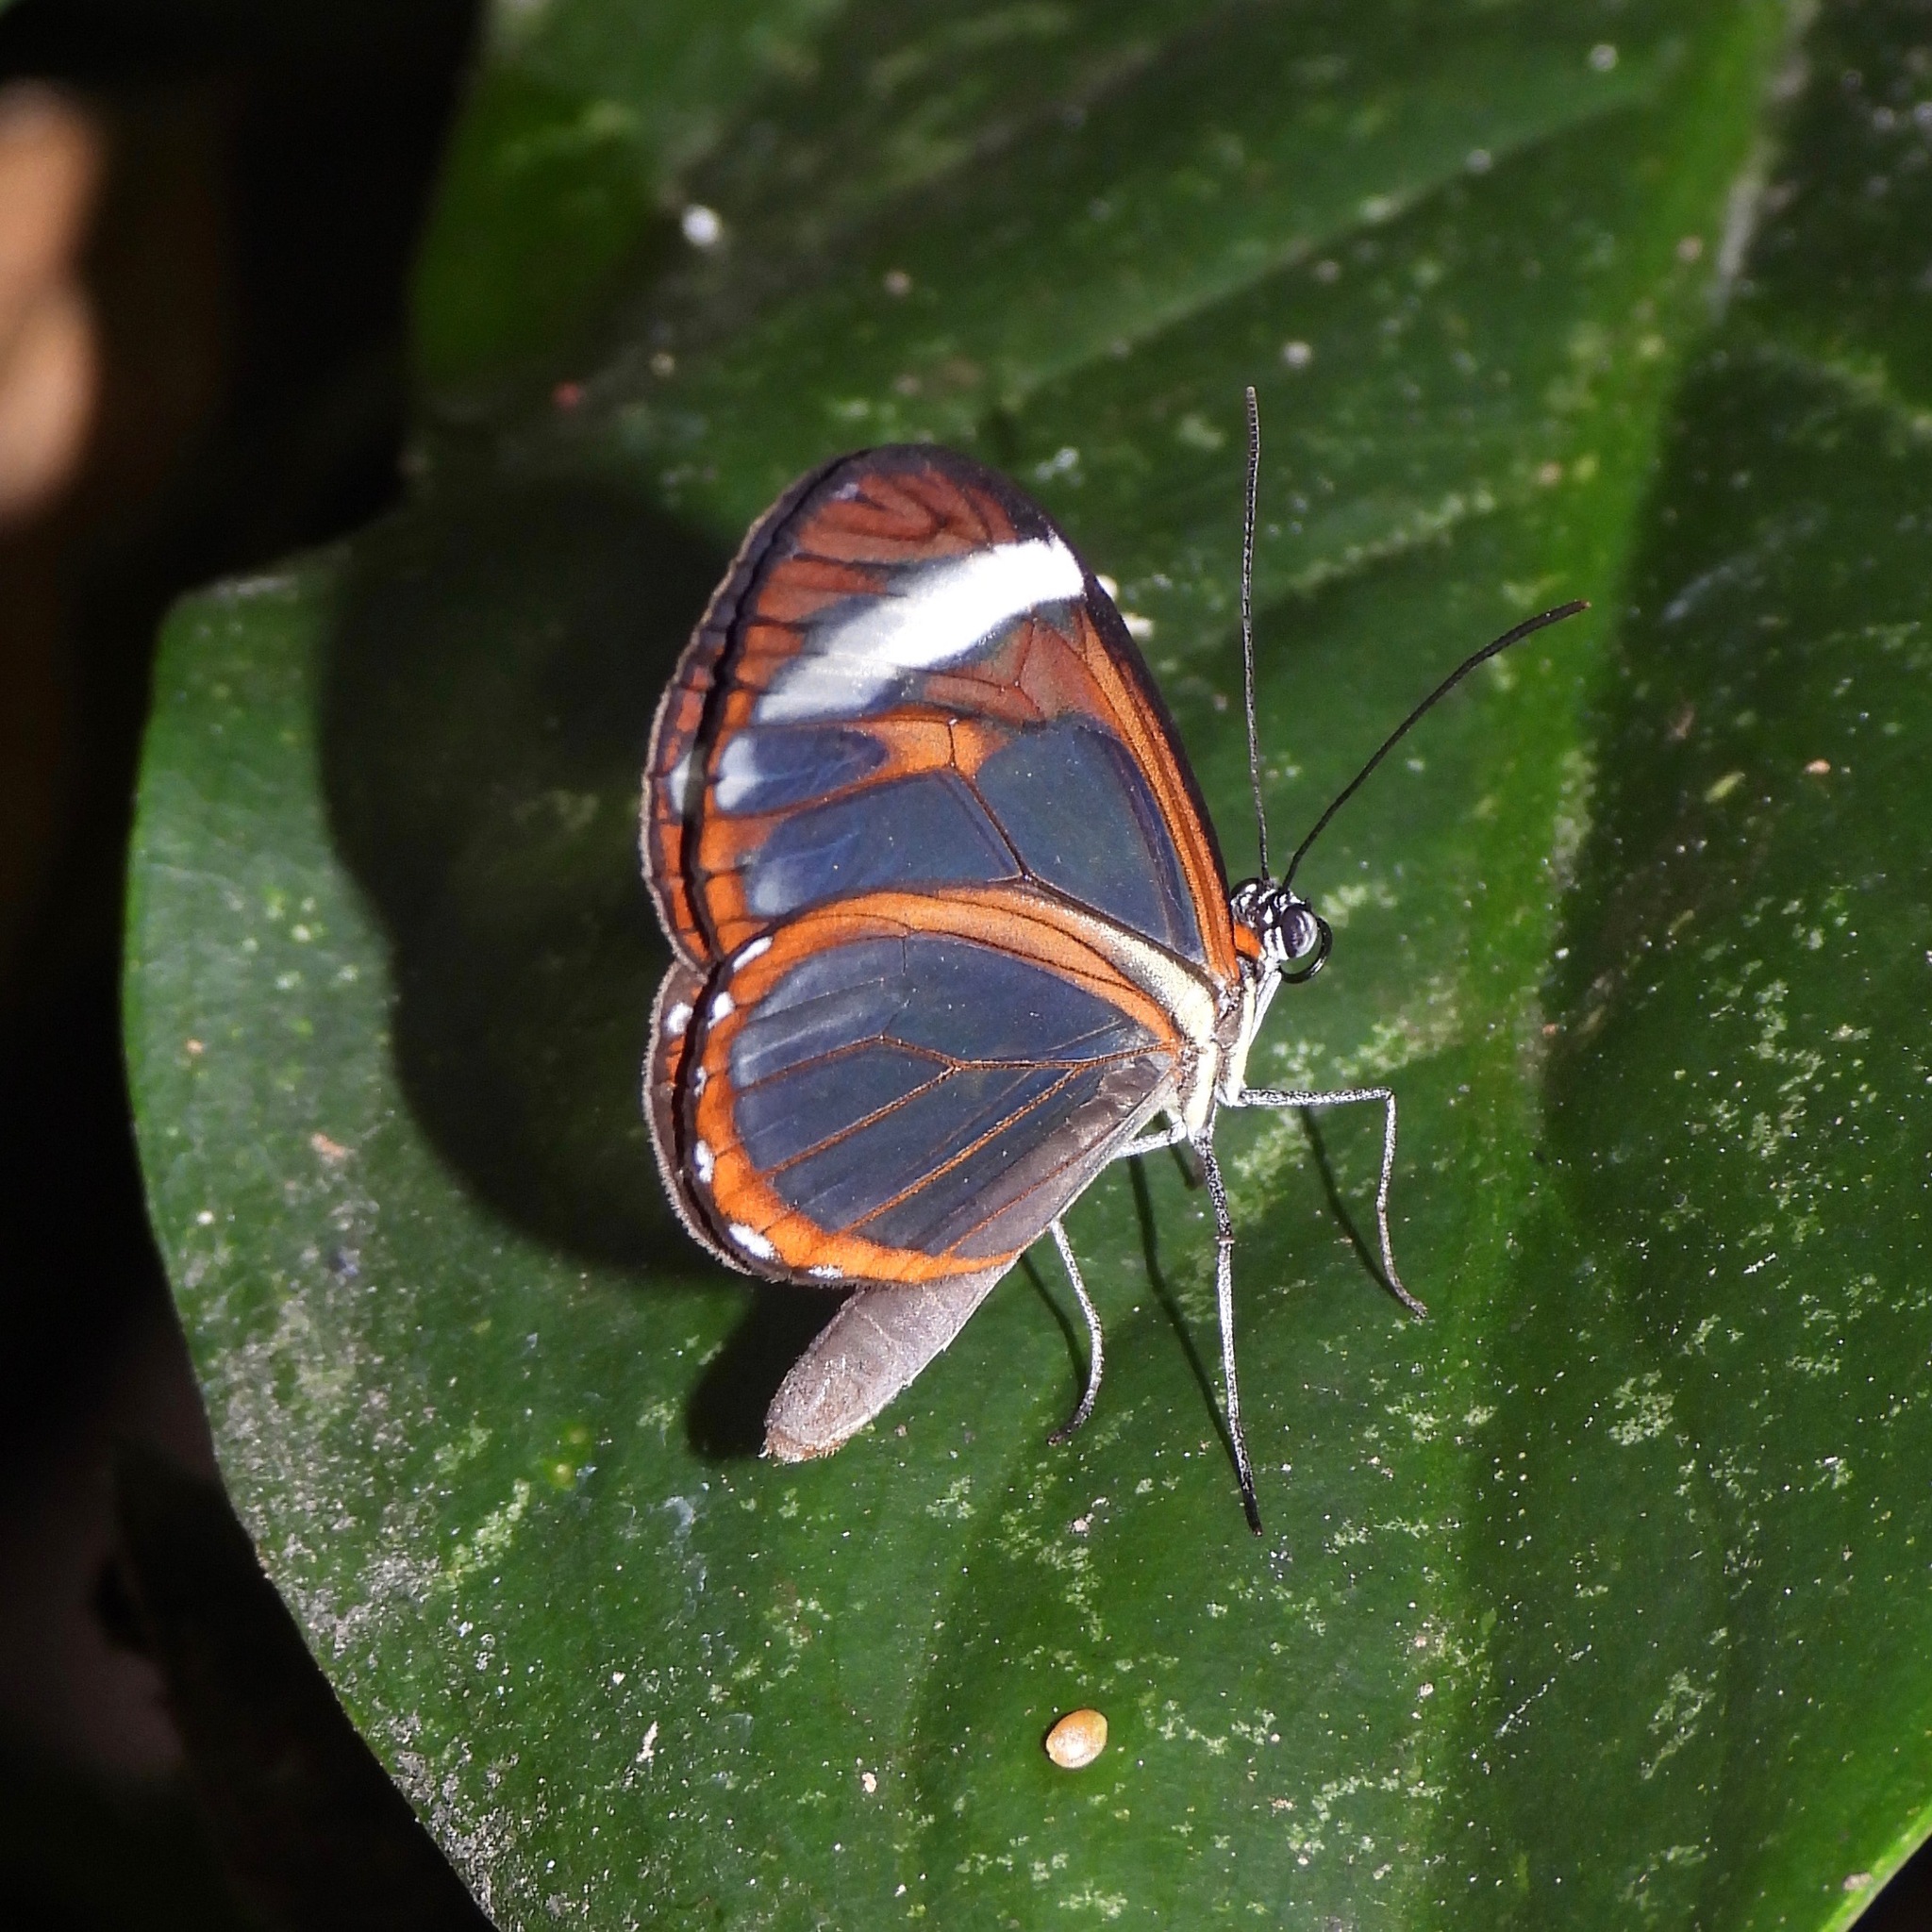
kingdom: Animalia
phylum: Arthropoda
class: Insecta
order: Lepidoptera
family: Nymphalidae
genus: Ithomia
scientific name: Ithomia patilla
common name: Patilla clearwing
